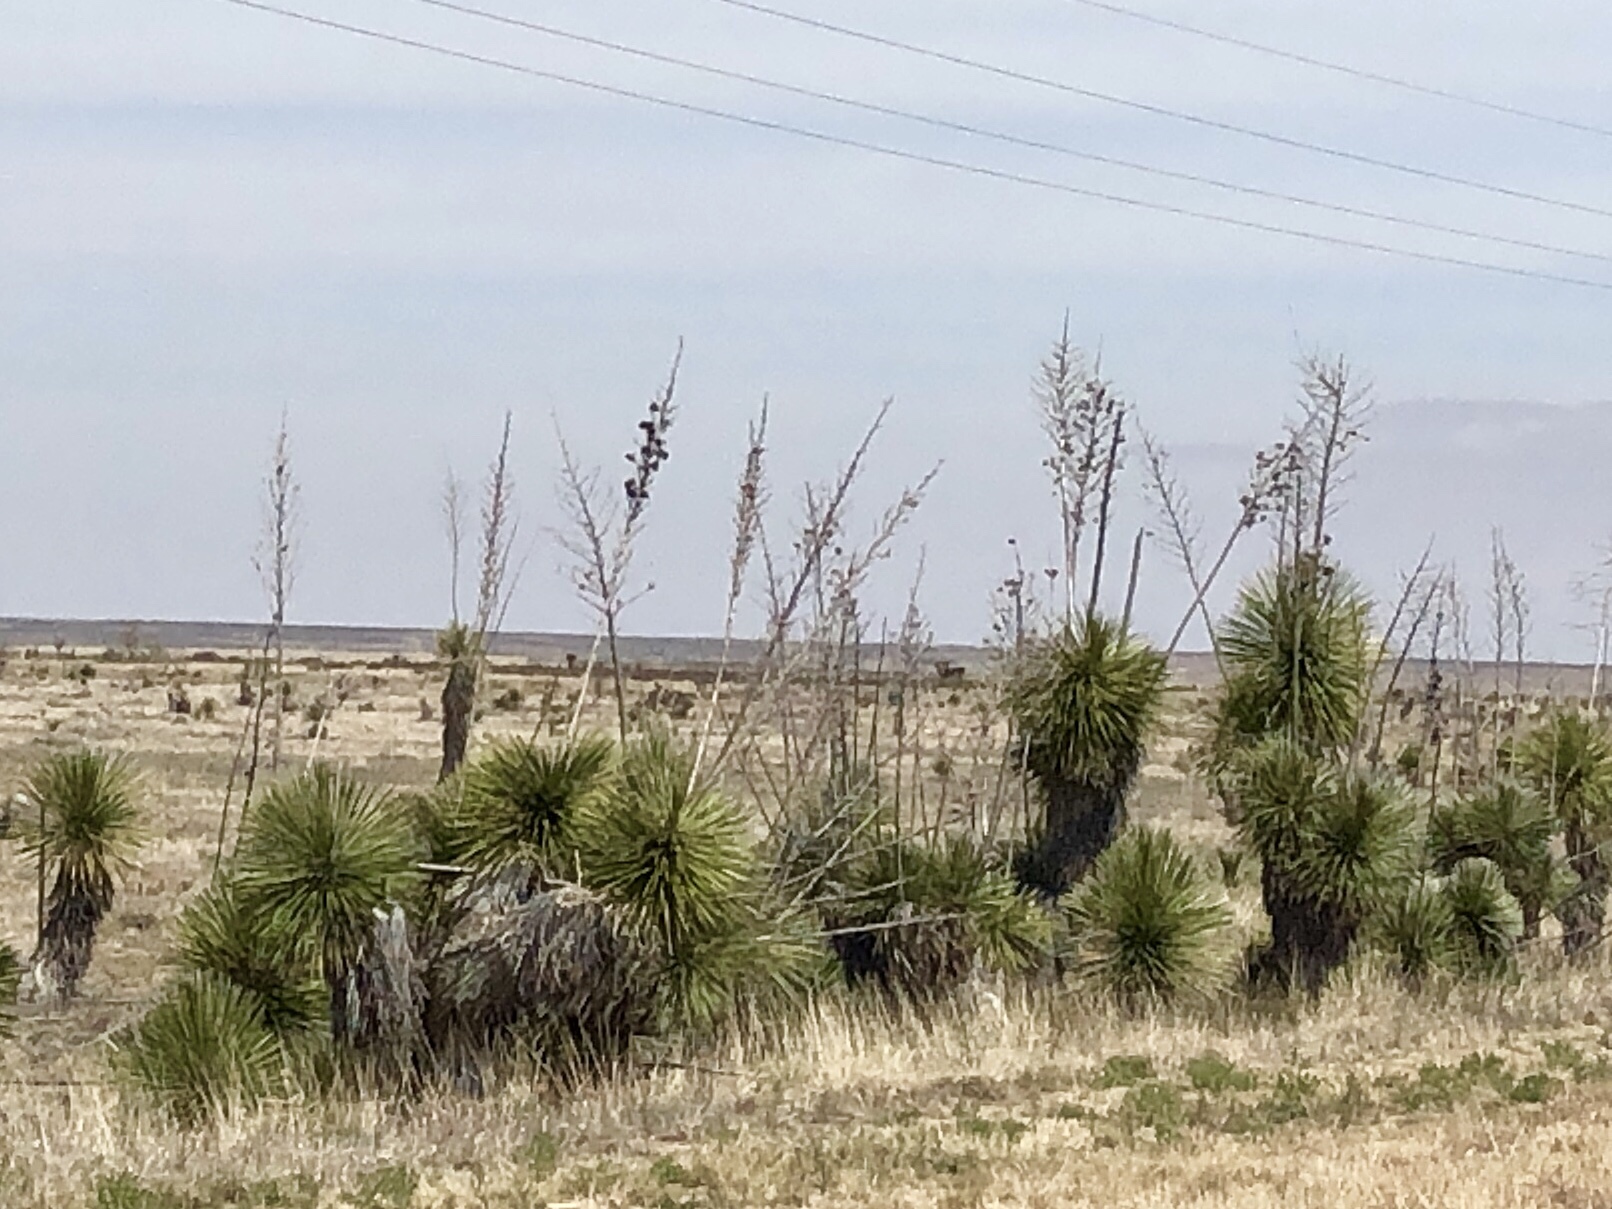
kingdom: Plantae
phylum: Tracheophyta
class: Liliopsida
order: Asparagales
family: Asparagaceae
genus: Yucca
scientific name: Yucca elata
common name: Palmella
